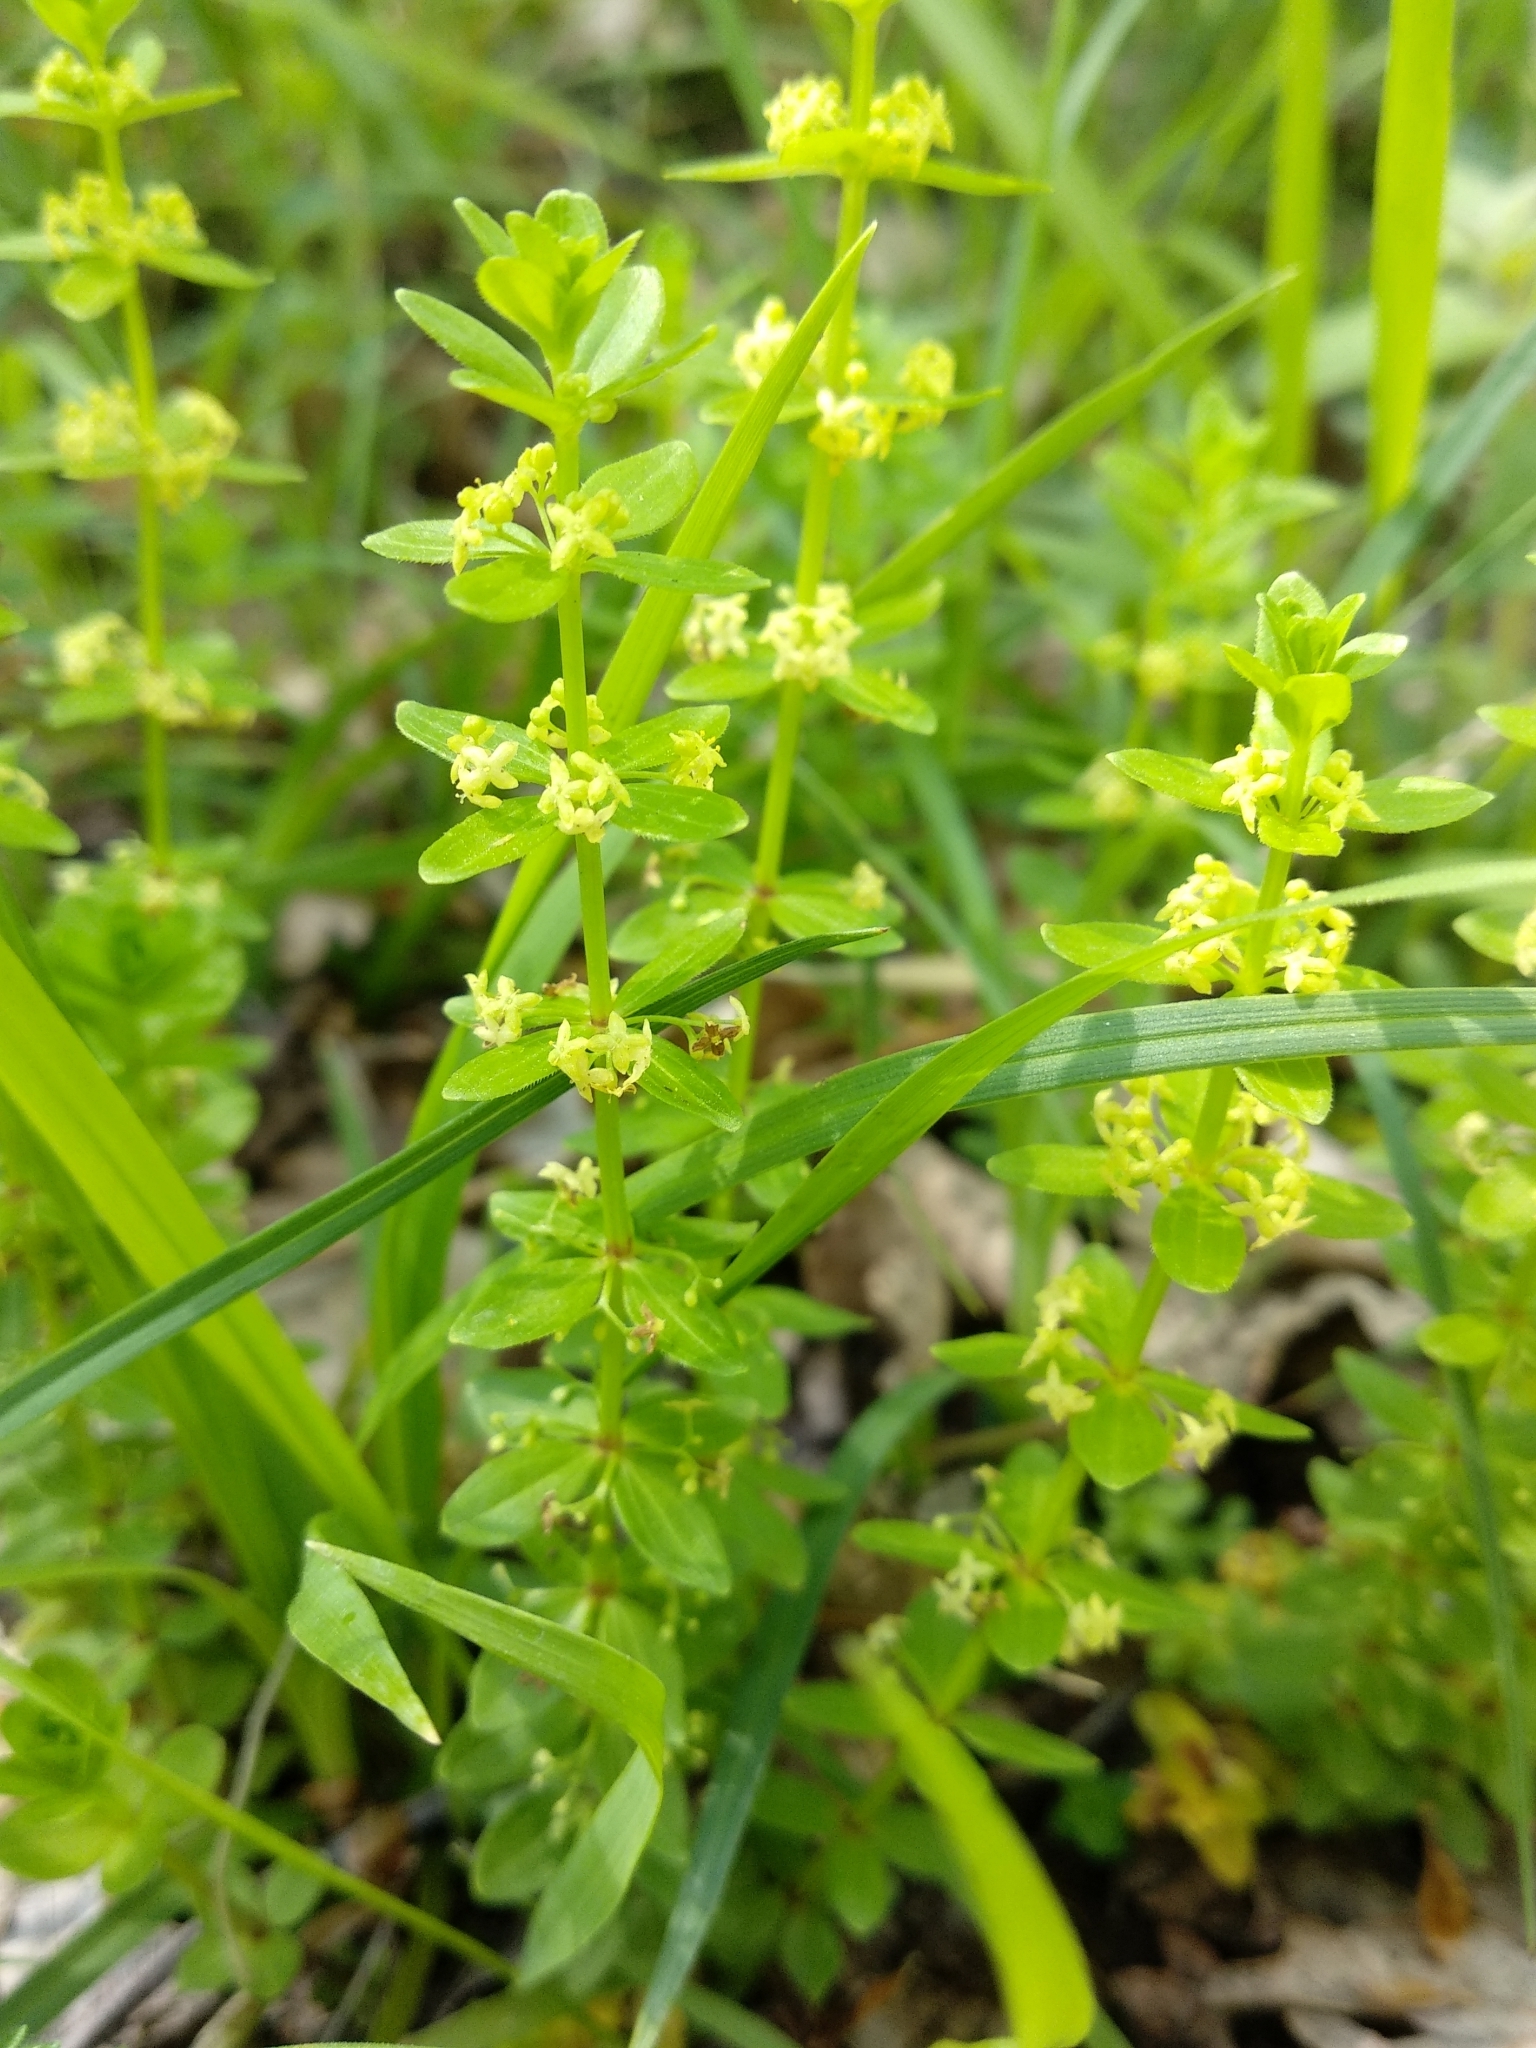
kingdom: Plantae
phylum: Tracheophyta
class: Magnoliopsida
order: Gentianales
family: Rubiaceae
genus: Cruciata
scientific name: Cruciata laevipes
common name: Crosswort
